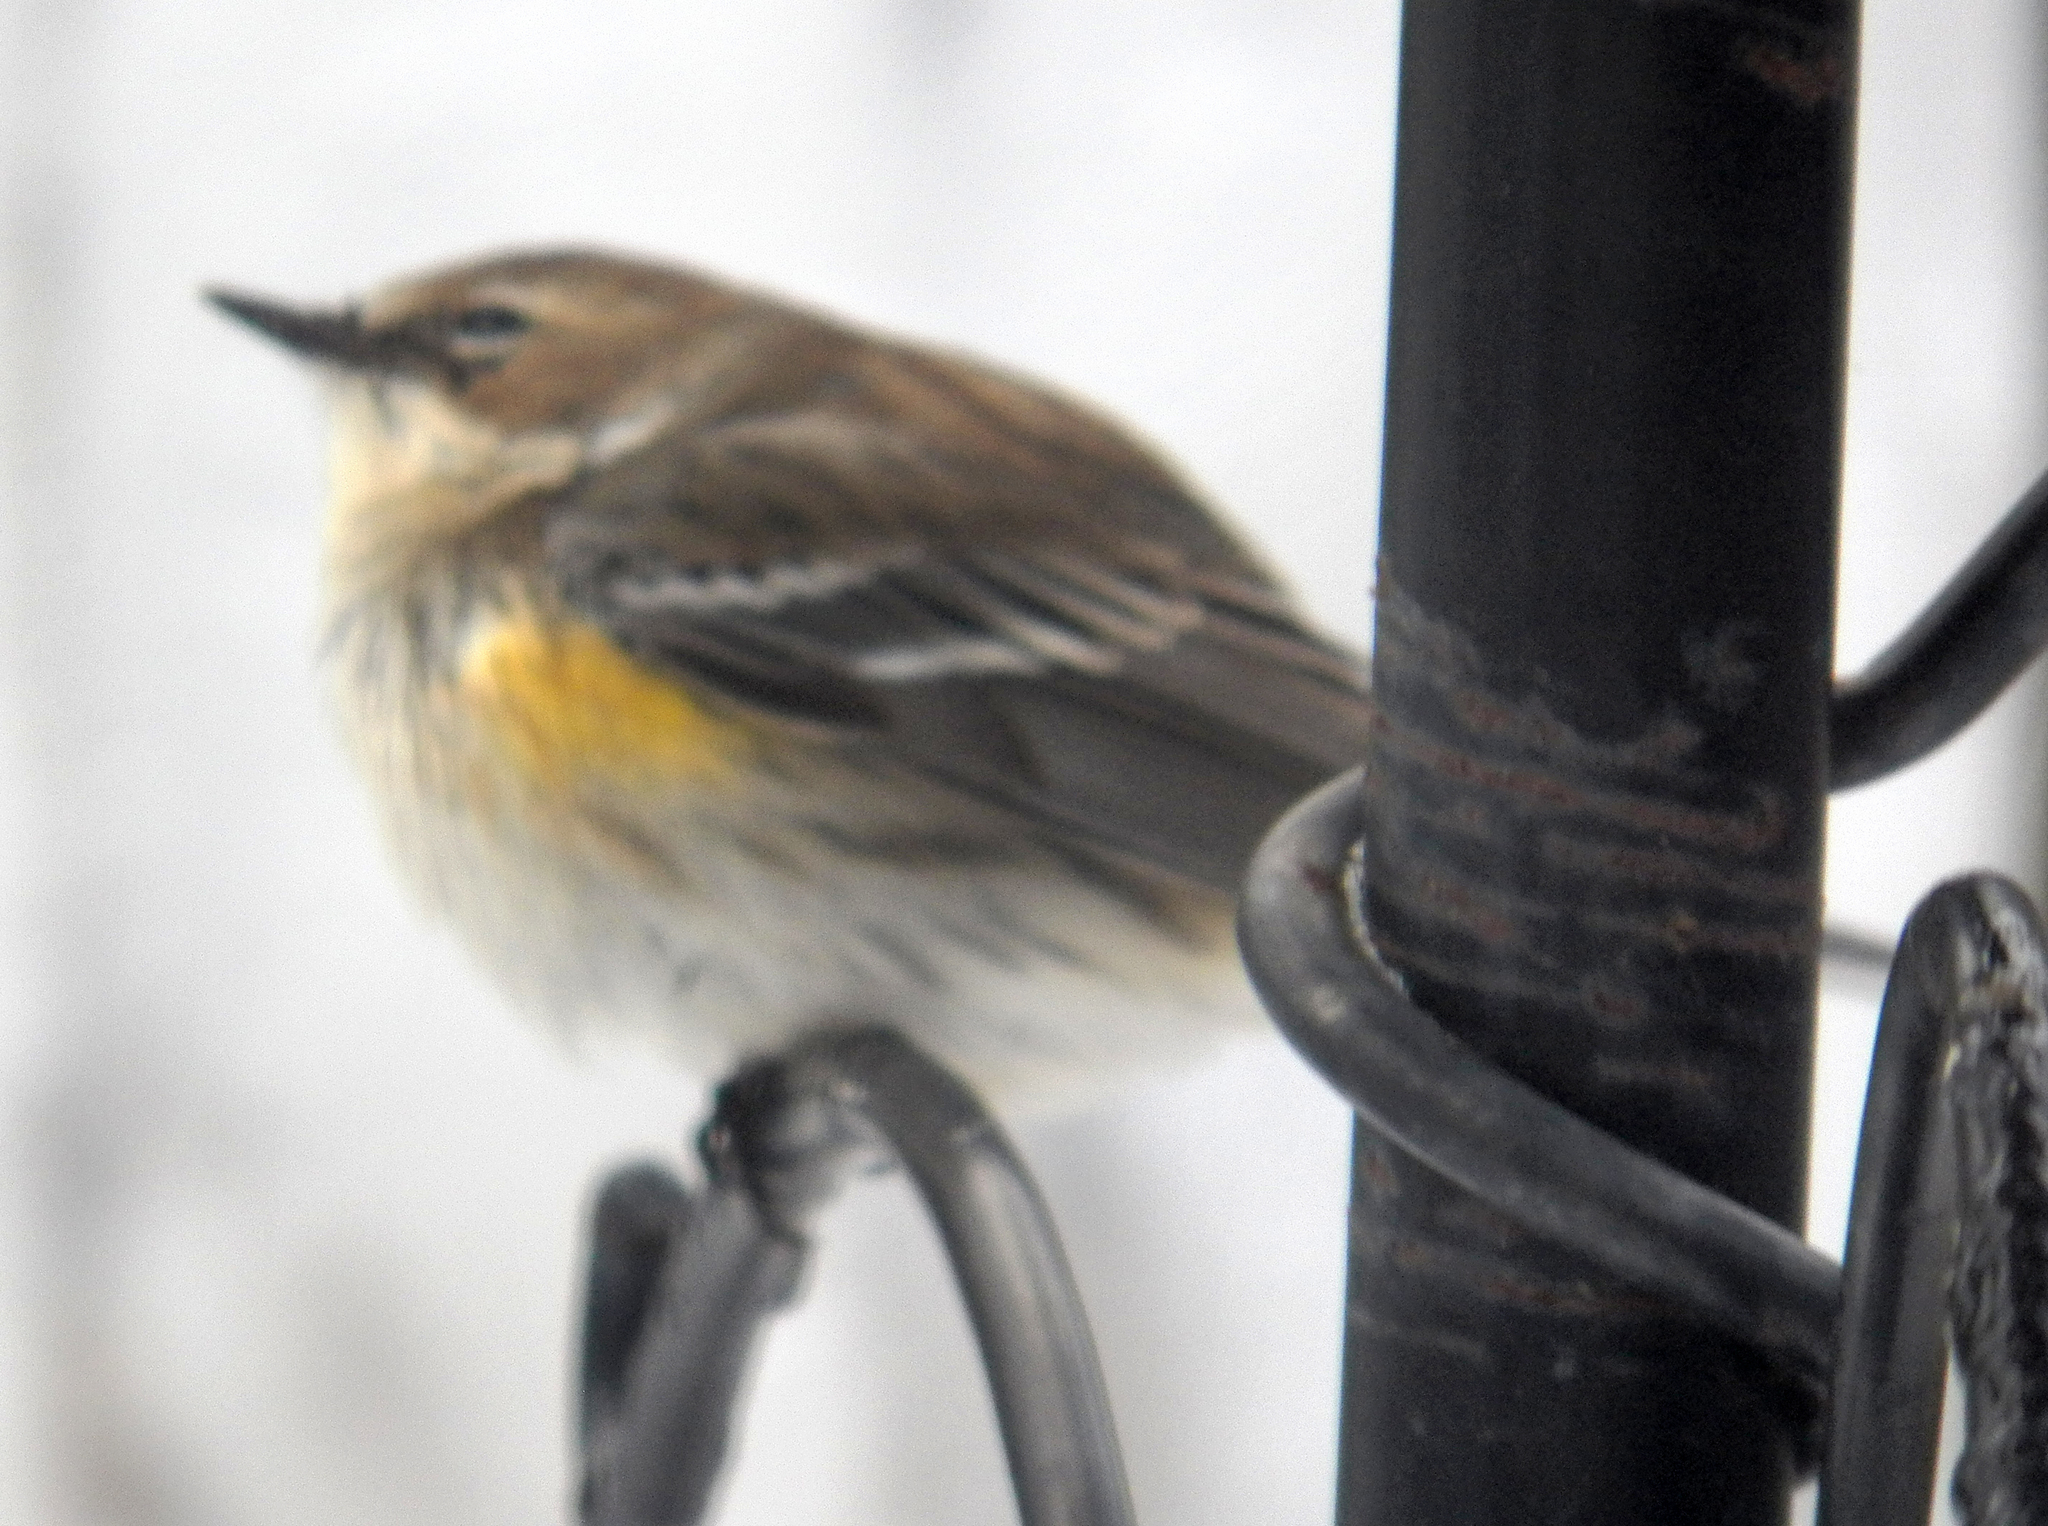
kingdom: Animalia
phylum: Chordata
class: Aves
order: Passeriformes
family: Parulidae
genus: Setophaga
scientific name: Setophaga coronata
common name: Myrtle warbler
